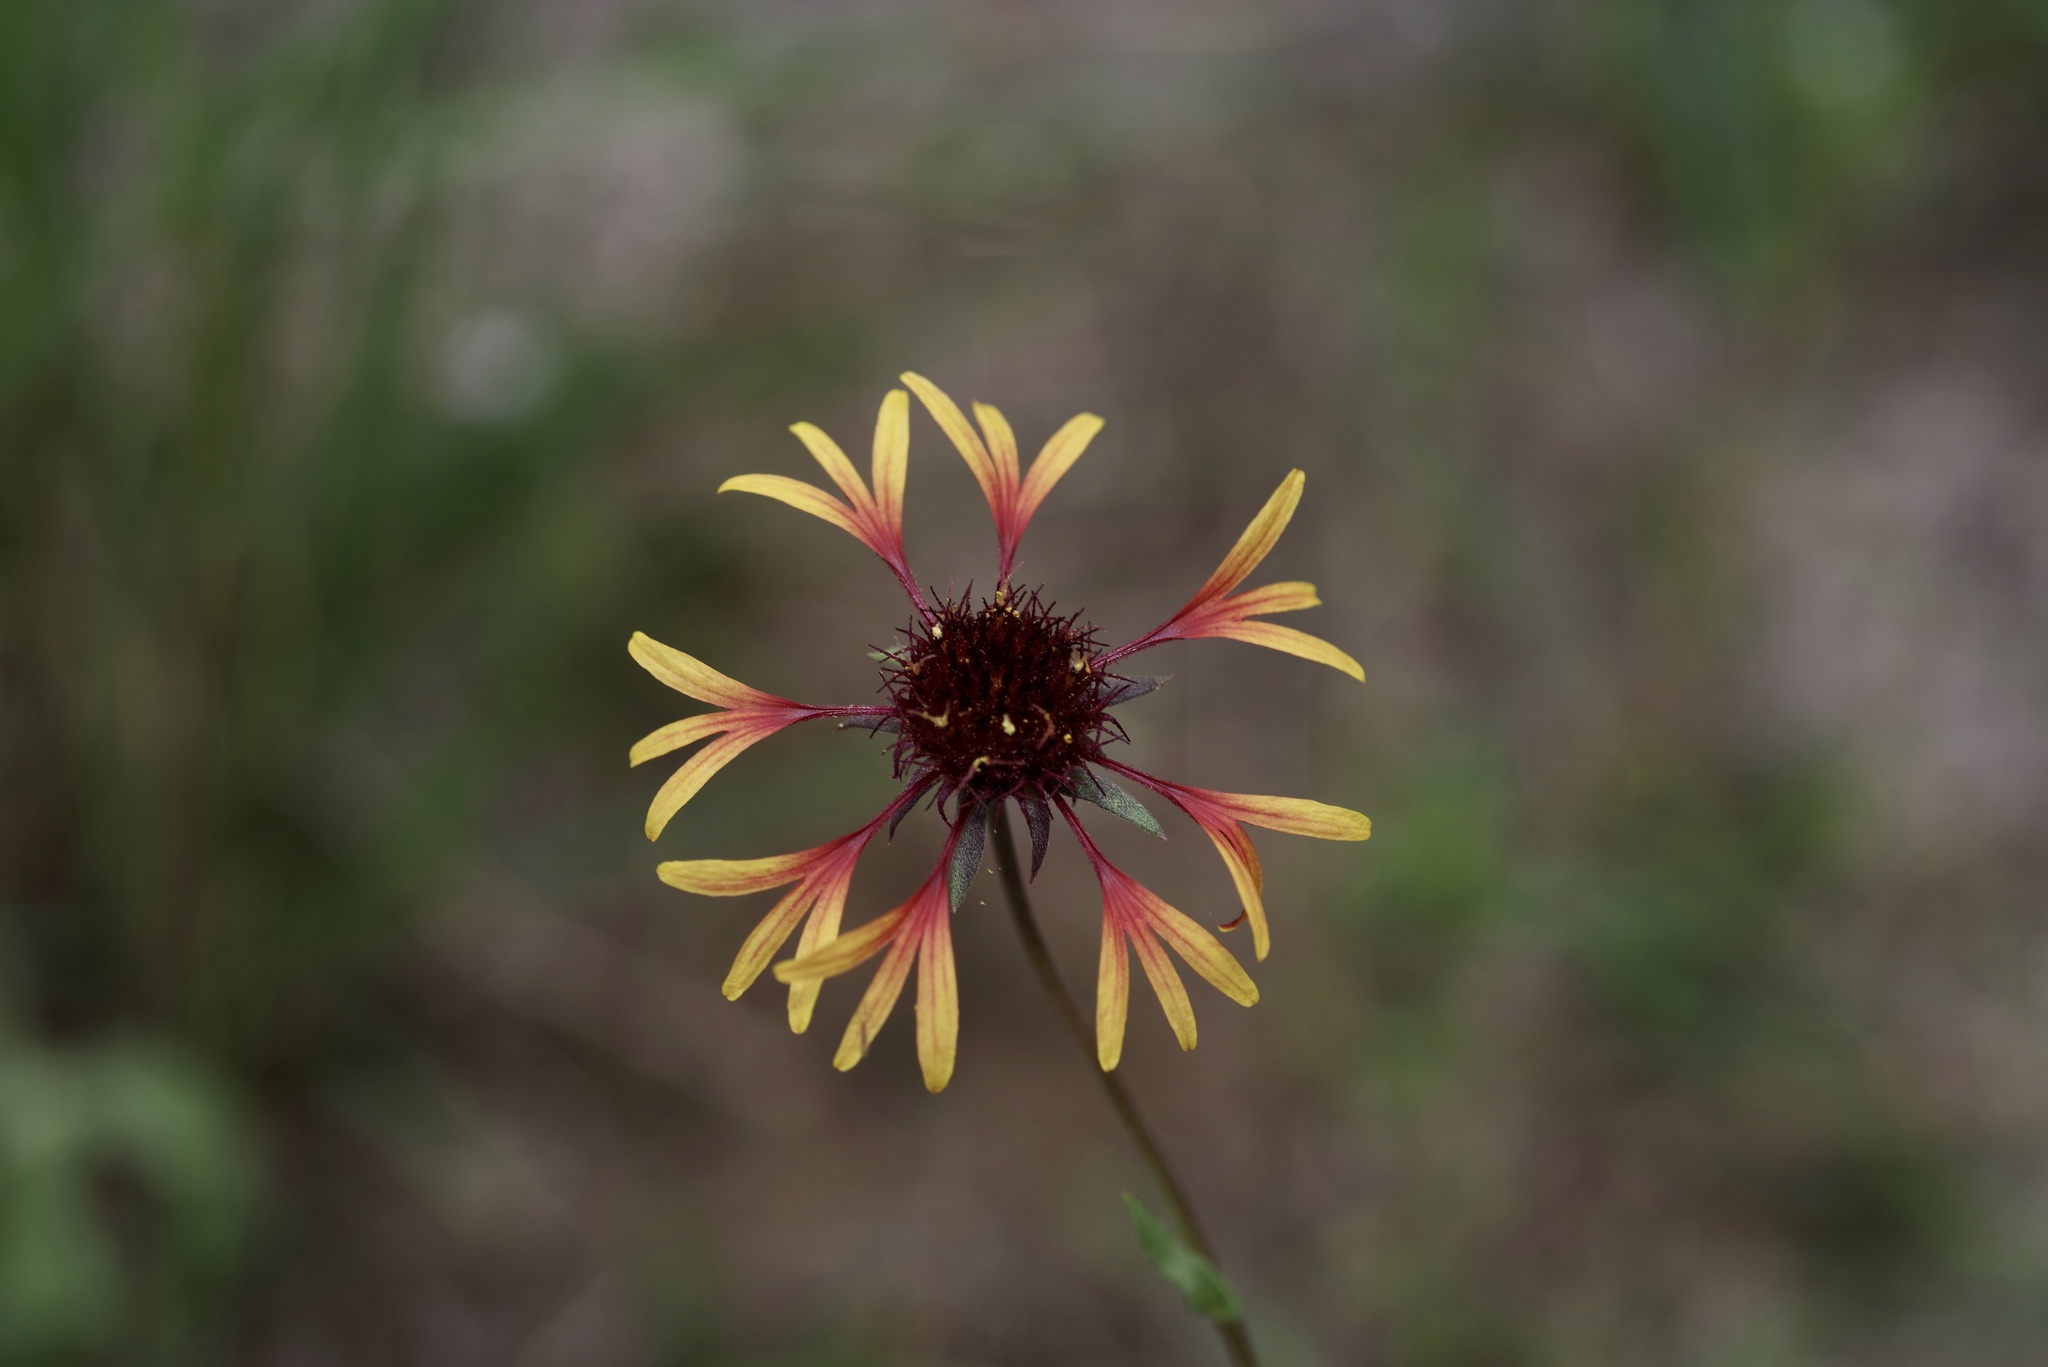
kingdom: Plantae
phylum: Tracheophyta
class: Magnoliopsida
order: Asterales
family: Asteraceae
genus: Gaillardia
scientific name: Gaillardia aestivalis
